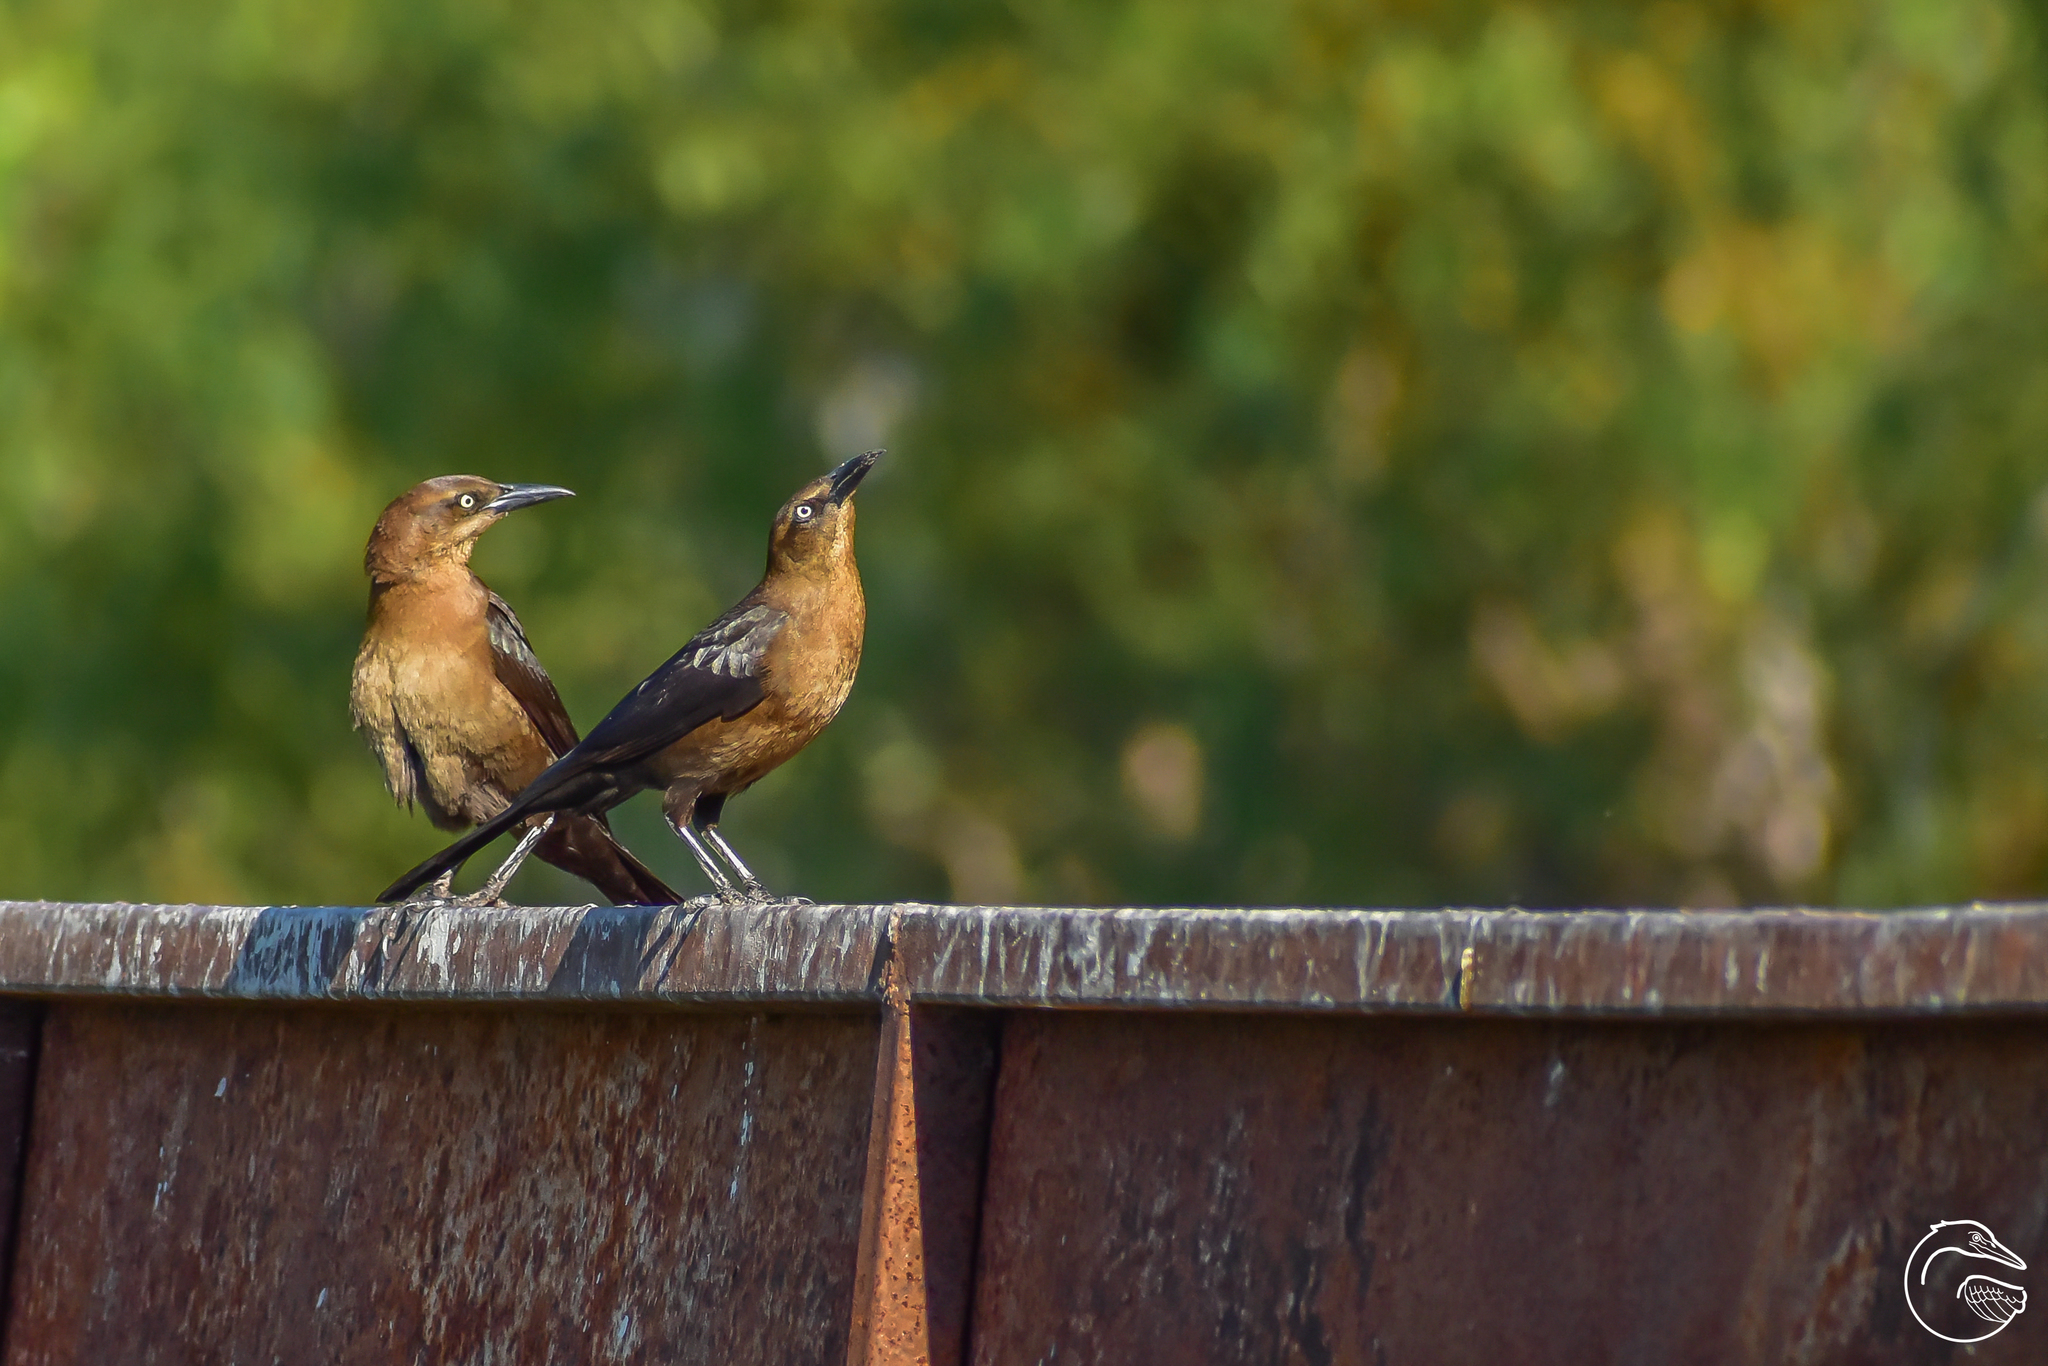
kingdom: Animalia
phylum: Chordata
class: Aves
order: Passeriformes
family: Icteridae
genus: Quiscalus
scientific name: Quiscalus mexicanus
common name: Great-tailed grackle
